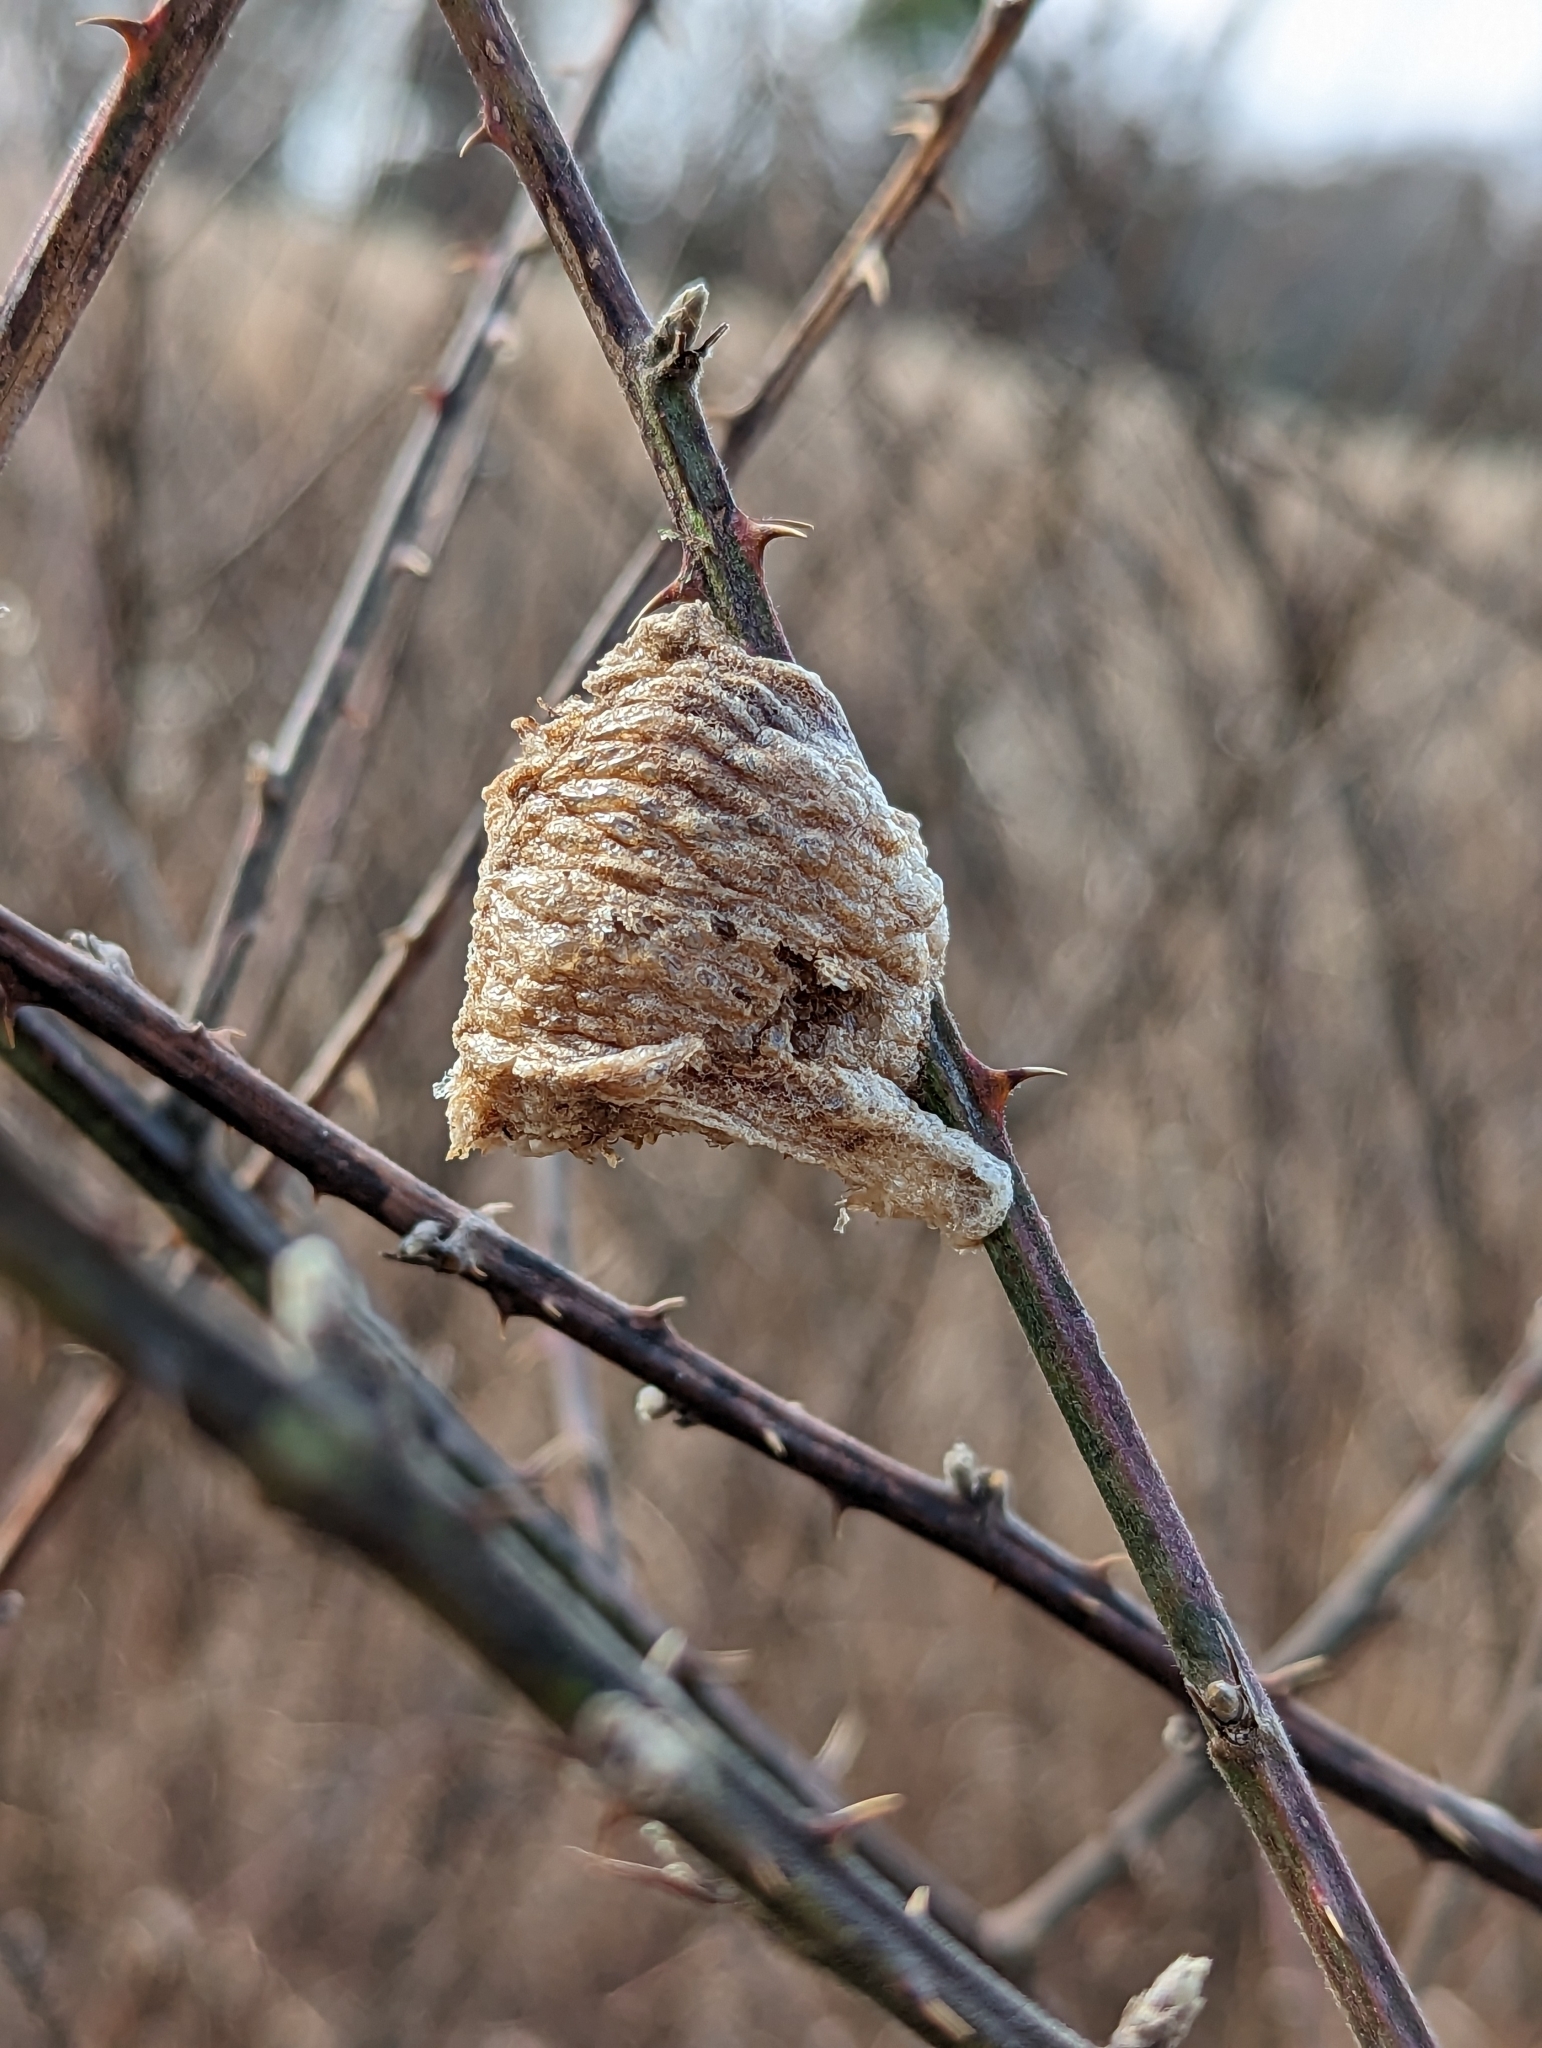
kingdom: Animalia
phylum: Arthropoda
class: Insecta
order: Mantodea
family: Mantidae
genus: Tenodera
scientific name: Tenodera sinensis
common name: Chinese mantis
